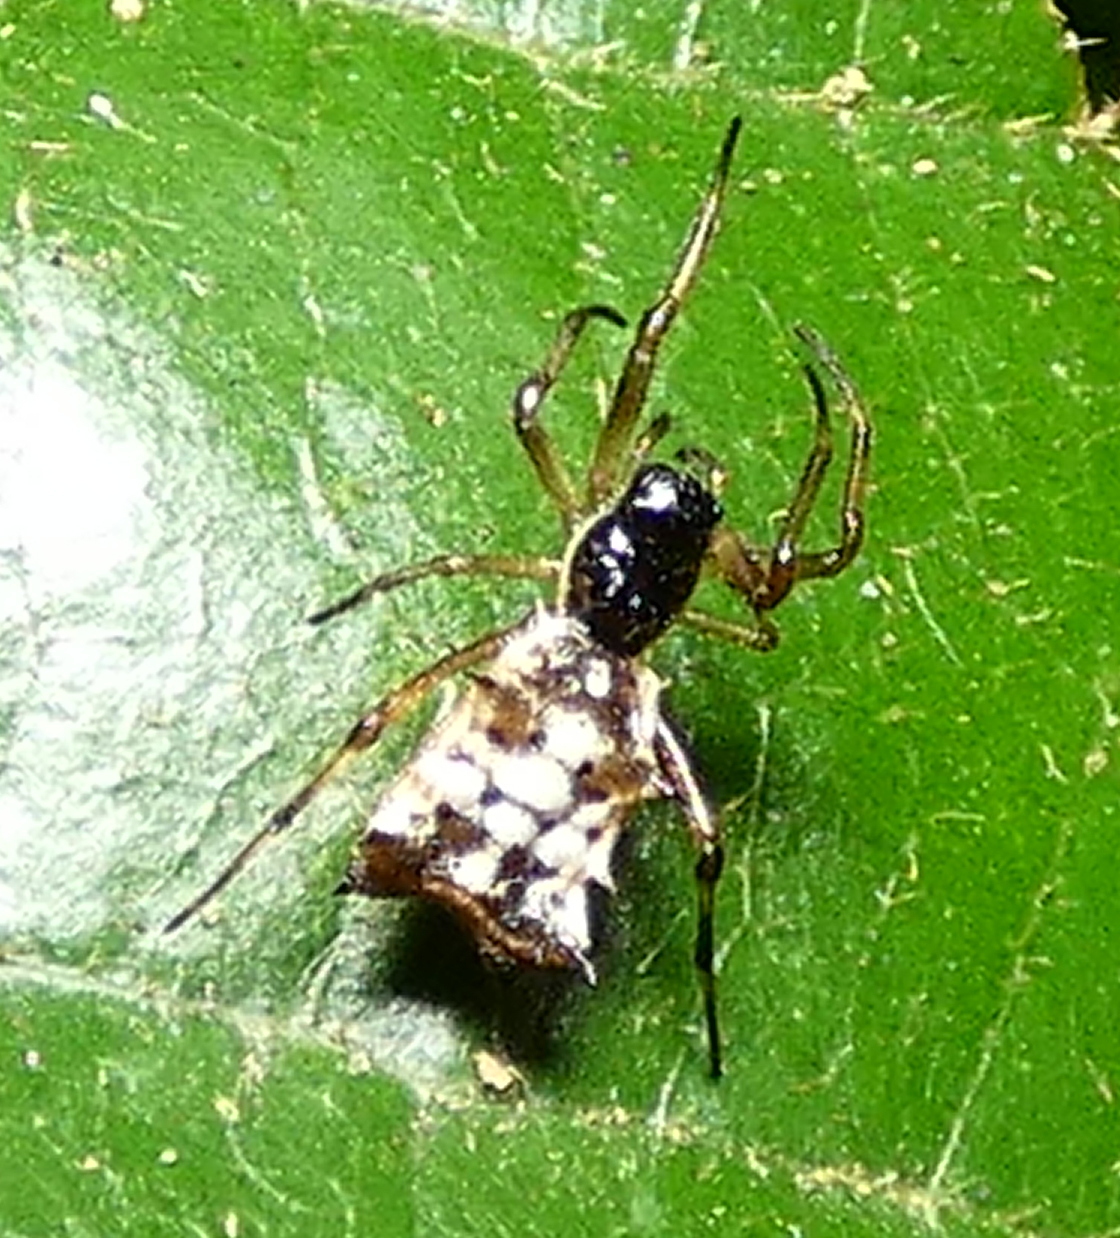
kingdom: Animalia
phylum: Arthropoda
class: Arachnida
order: Araneae
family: Araneidae
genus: Micrathena
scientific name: Micrathena picta
